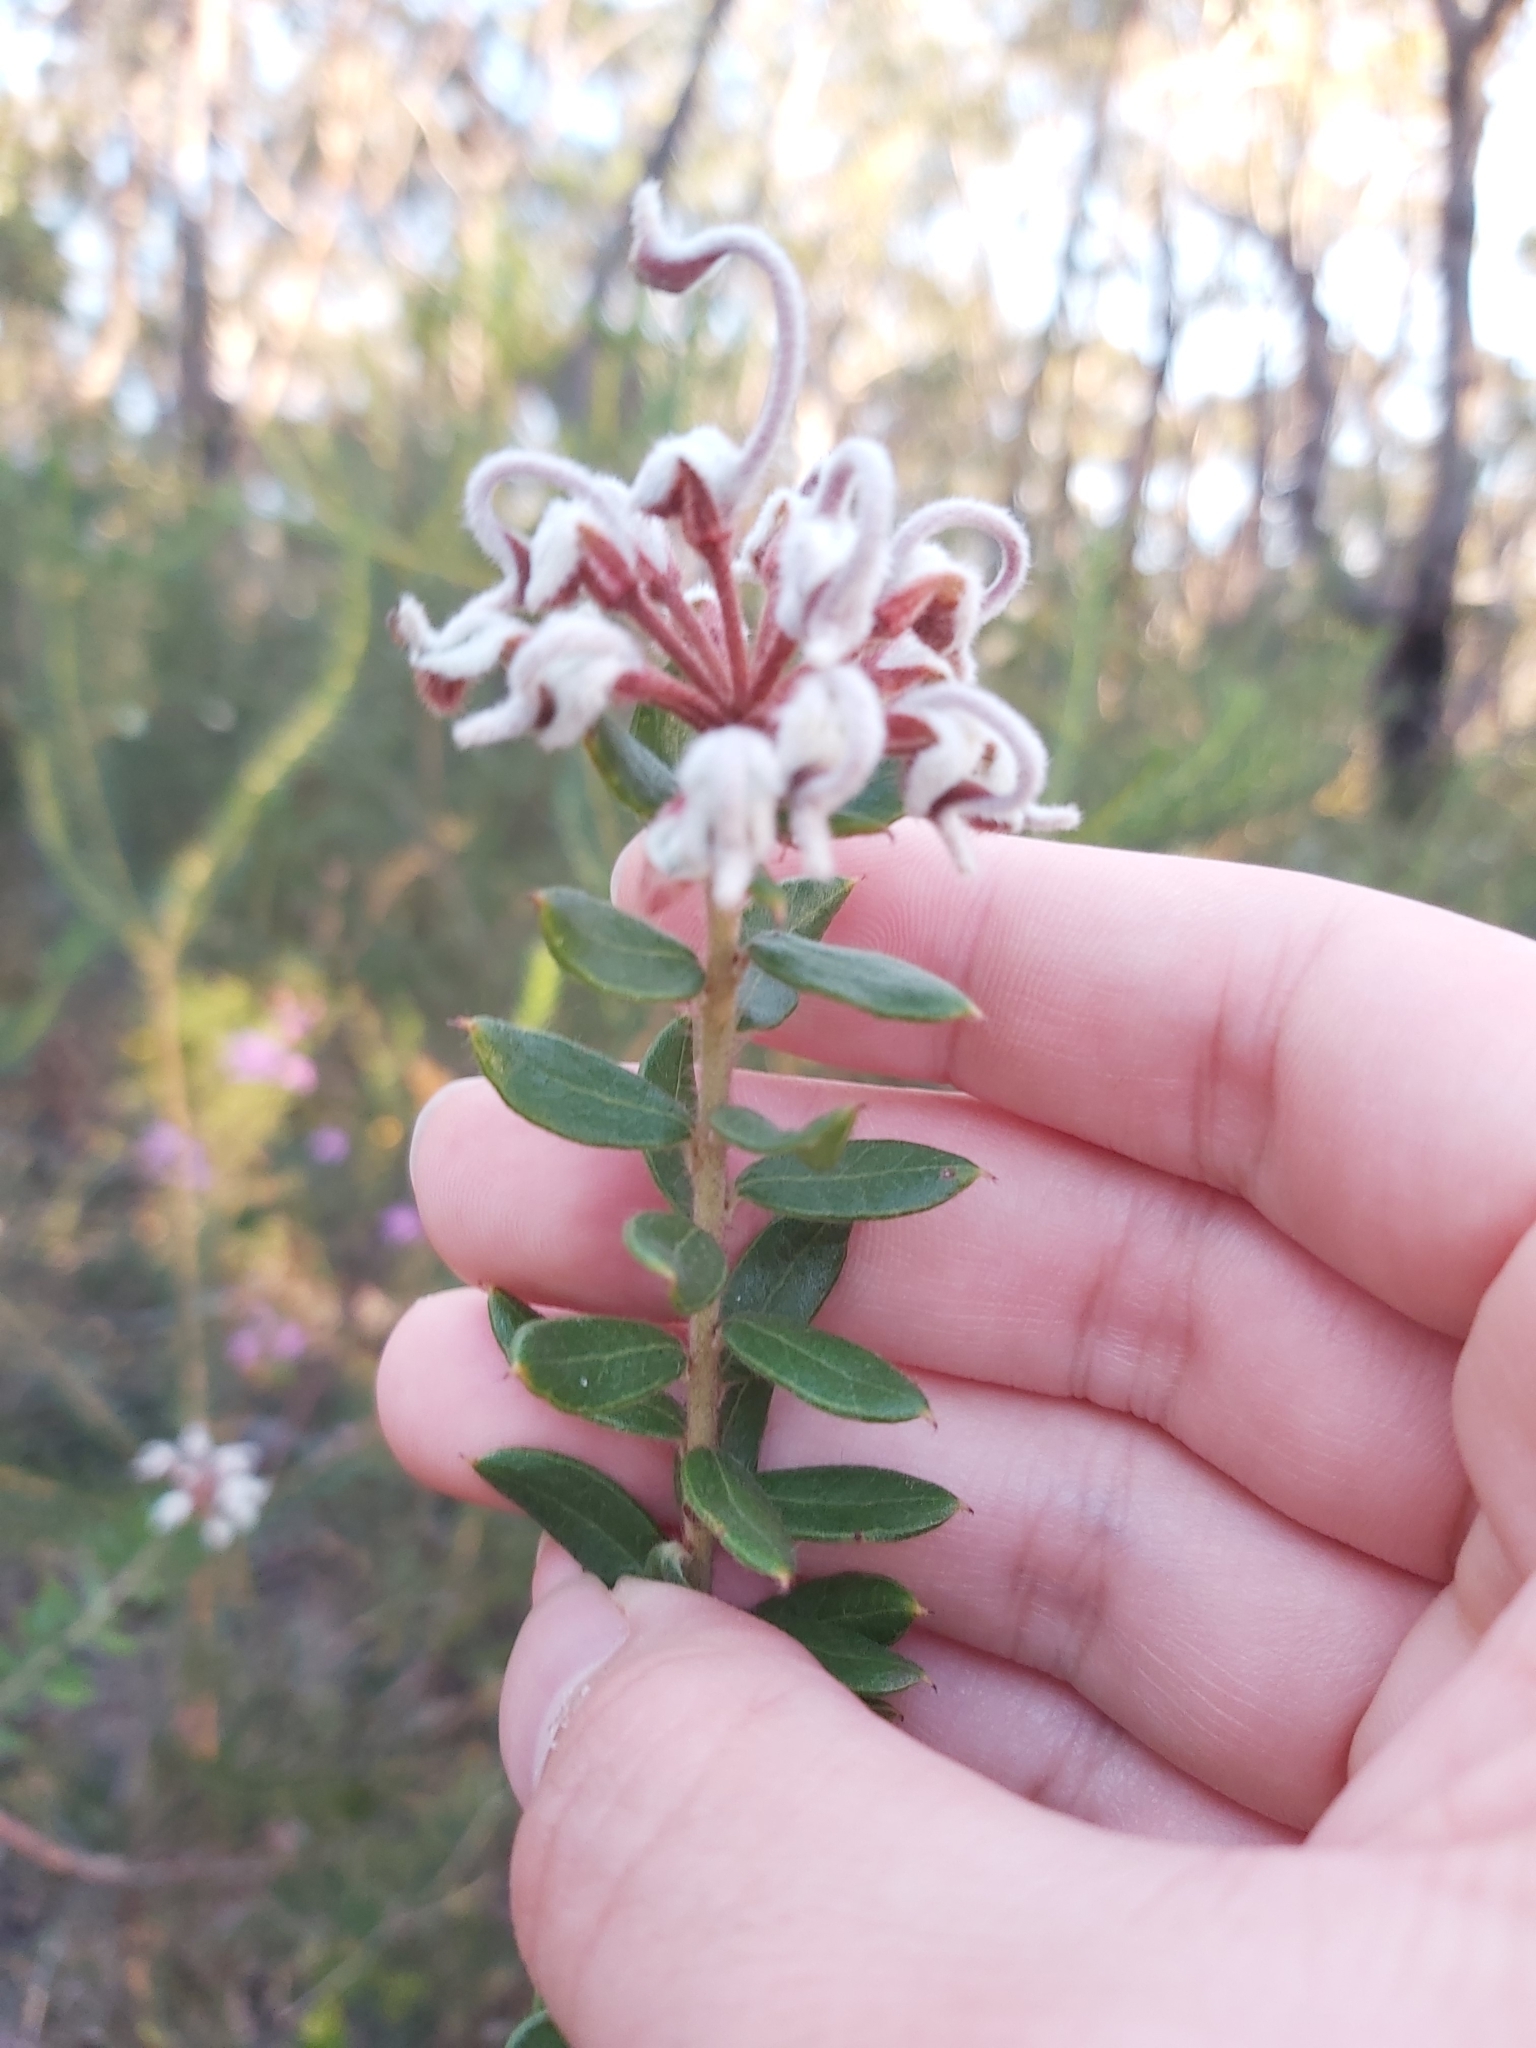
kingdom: Plantae
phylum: Tracheophyta
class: Magnoliopsida
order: Proteales
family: Proteaceae
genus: Grevillea
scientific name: Grevillea buxifolia
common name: Grey spiderflower
